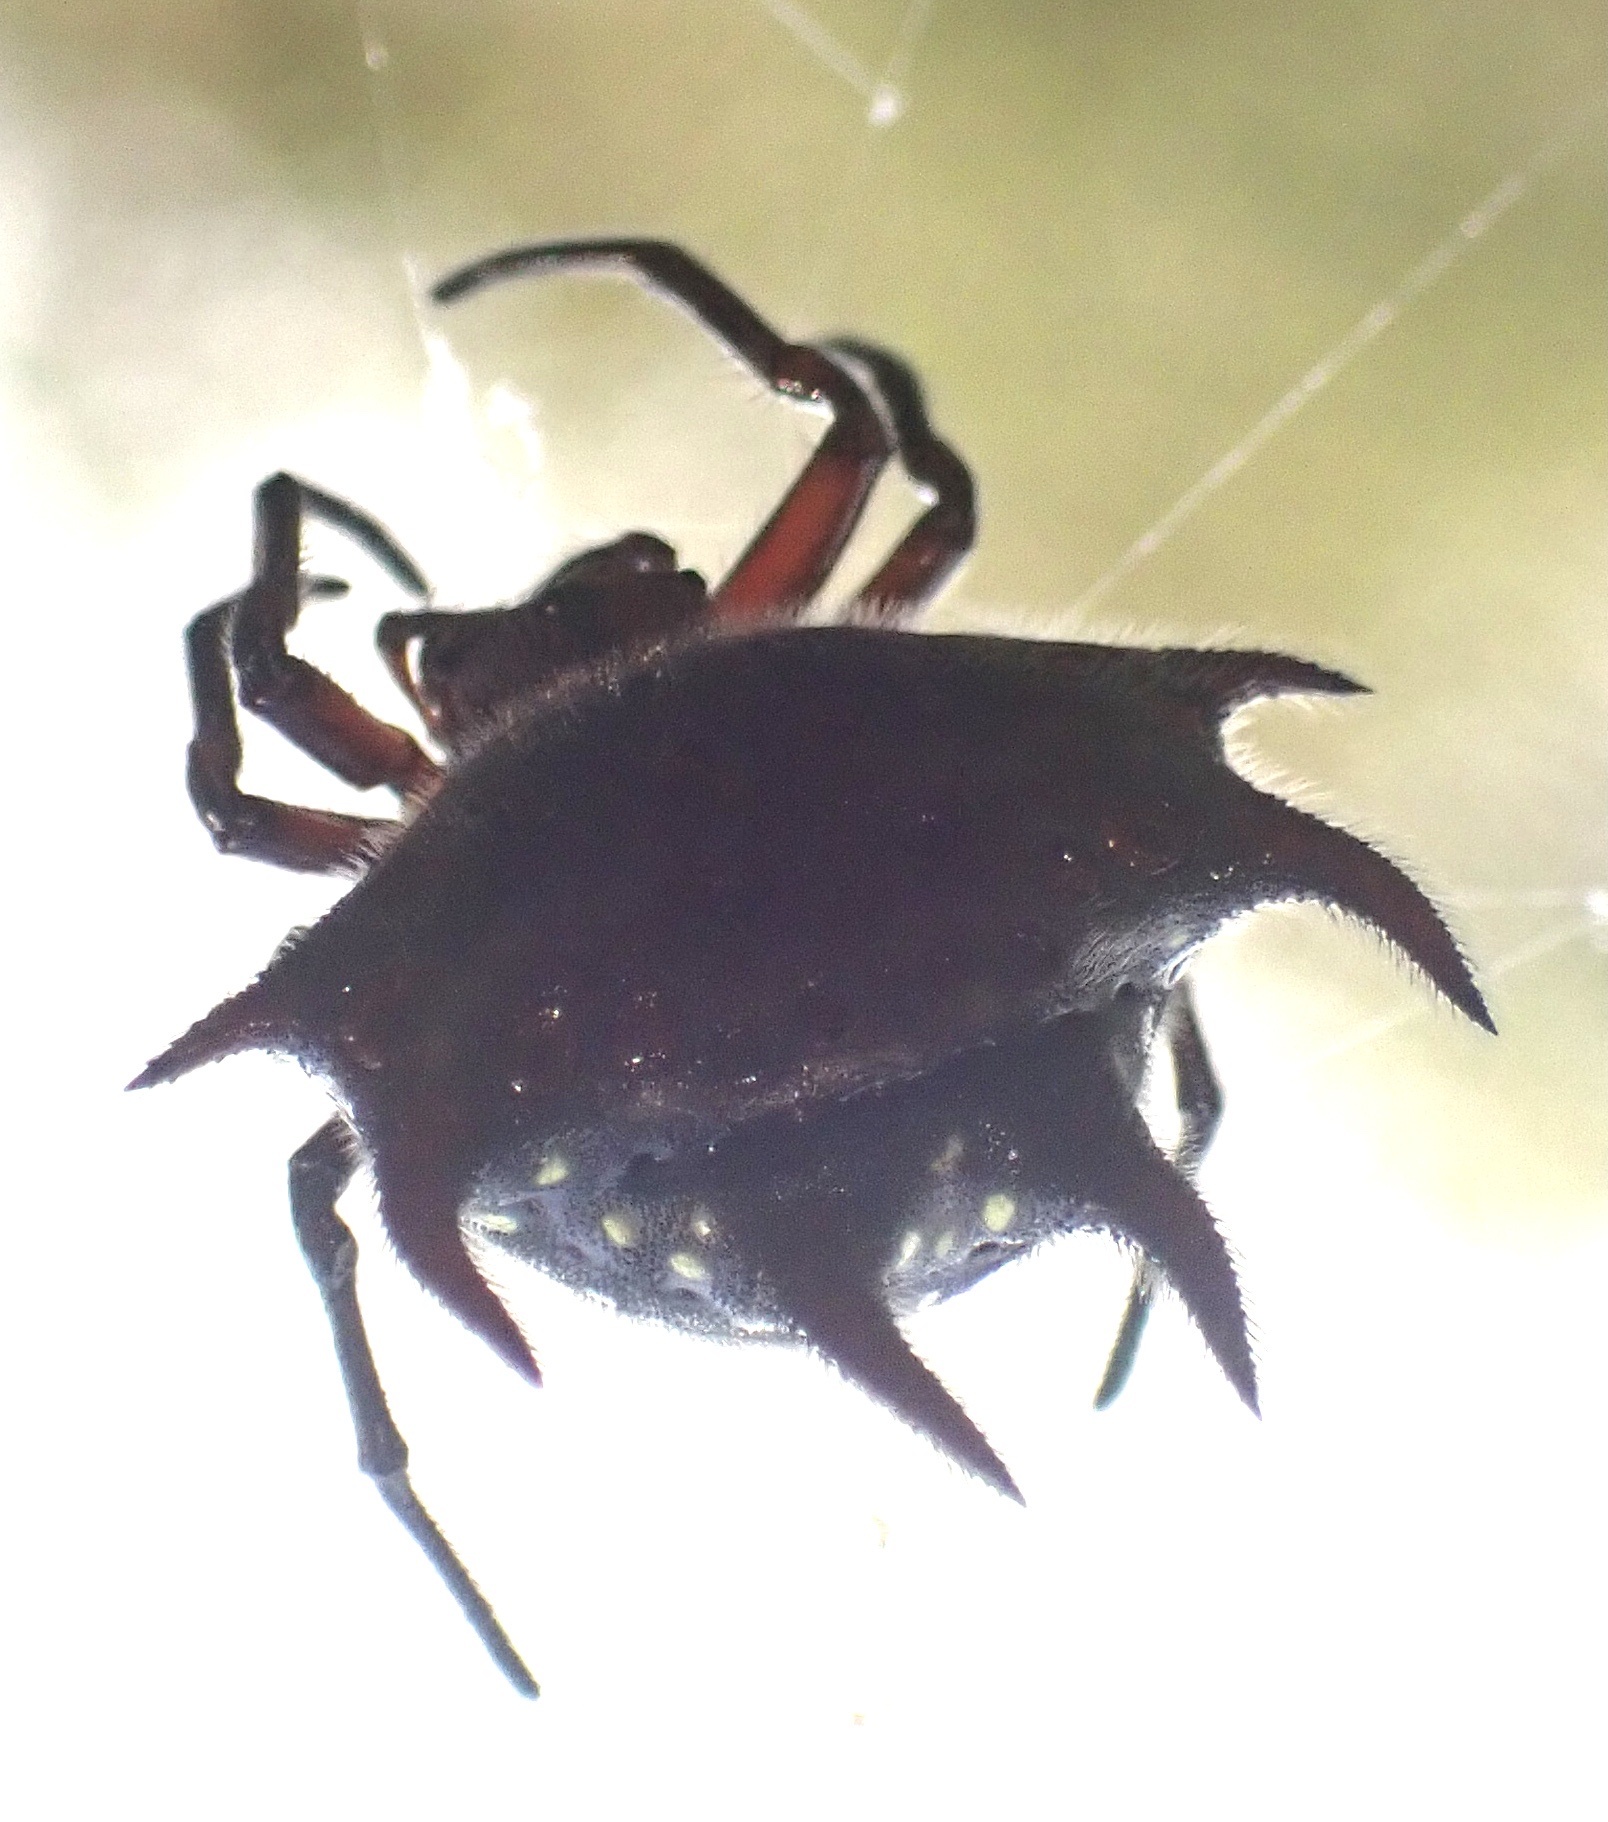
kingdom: Animalia
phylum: Arthropoda
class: Arachnida
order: Araneae
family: Araneidae
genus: Gasteracantha
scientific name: Gasteracantha curvispina
